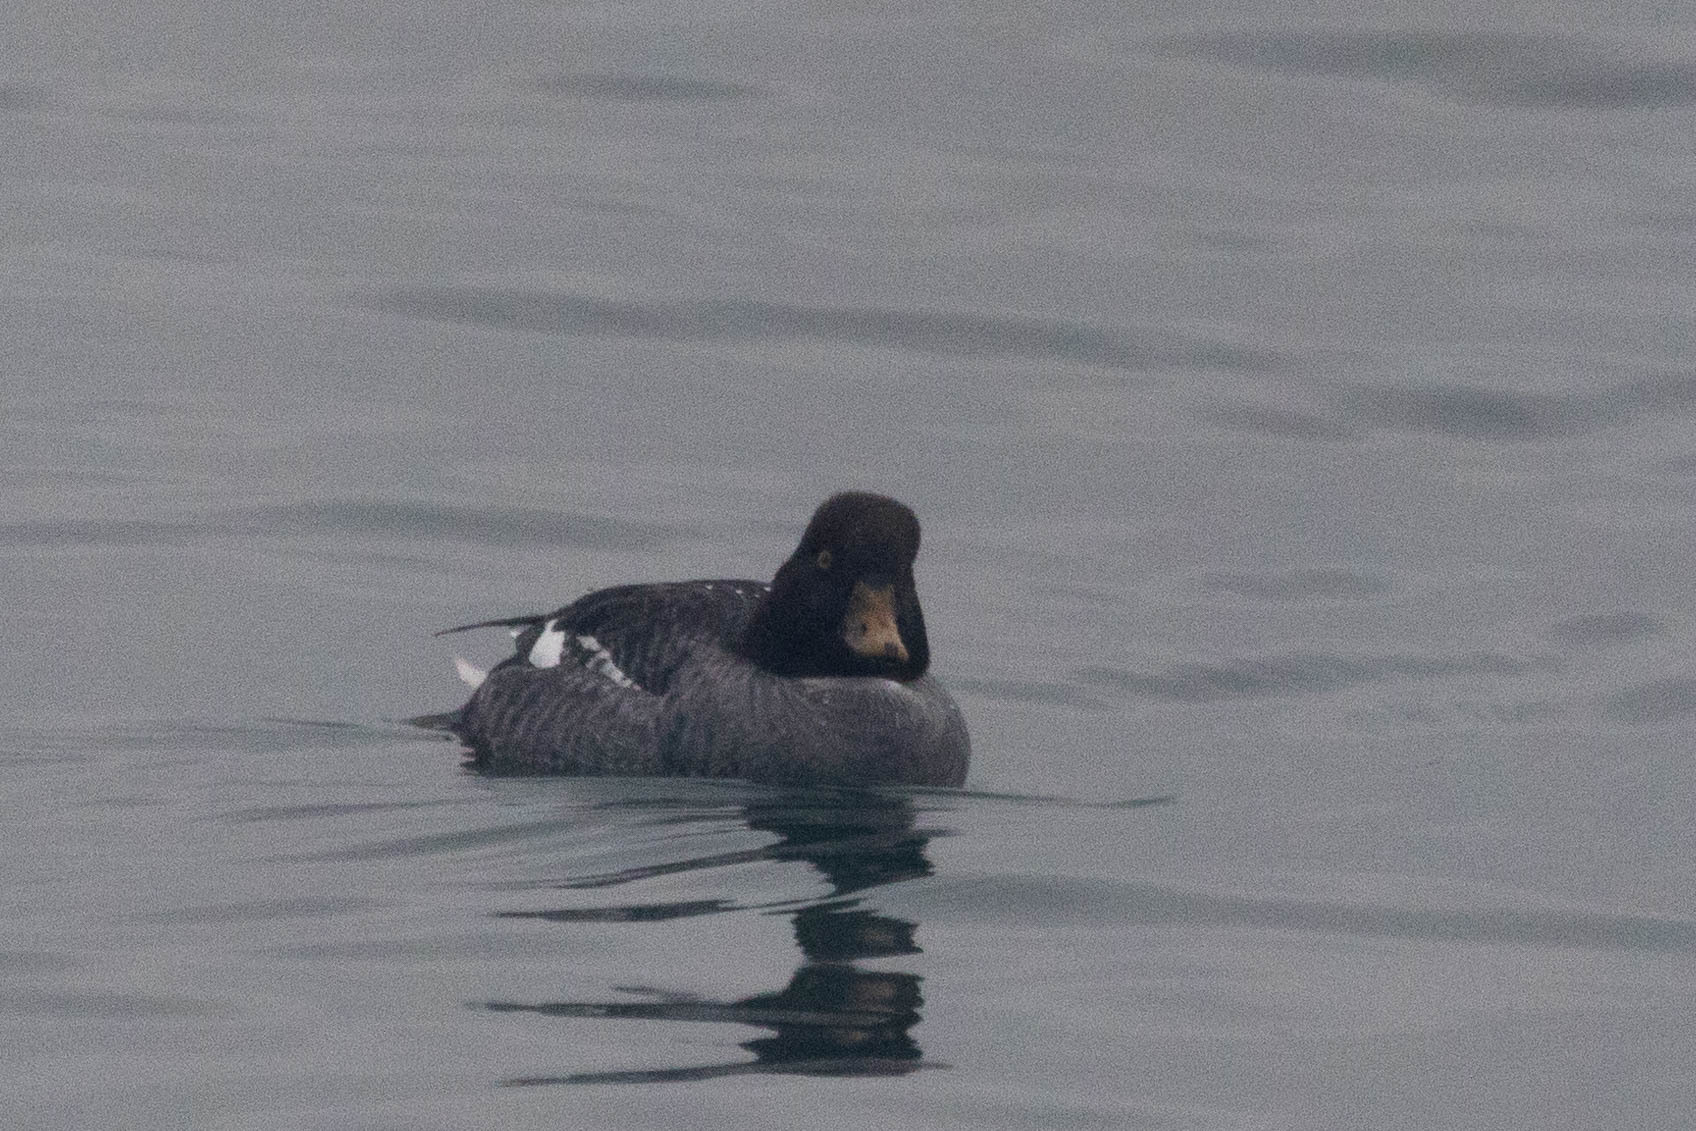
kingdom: Animalia
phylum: Chordata
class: Aves
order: Anseriformes
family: Anatidae
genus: Bucephala
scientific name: Bucephala islandica
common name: Barrow's goldeneye
